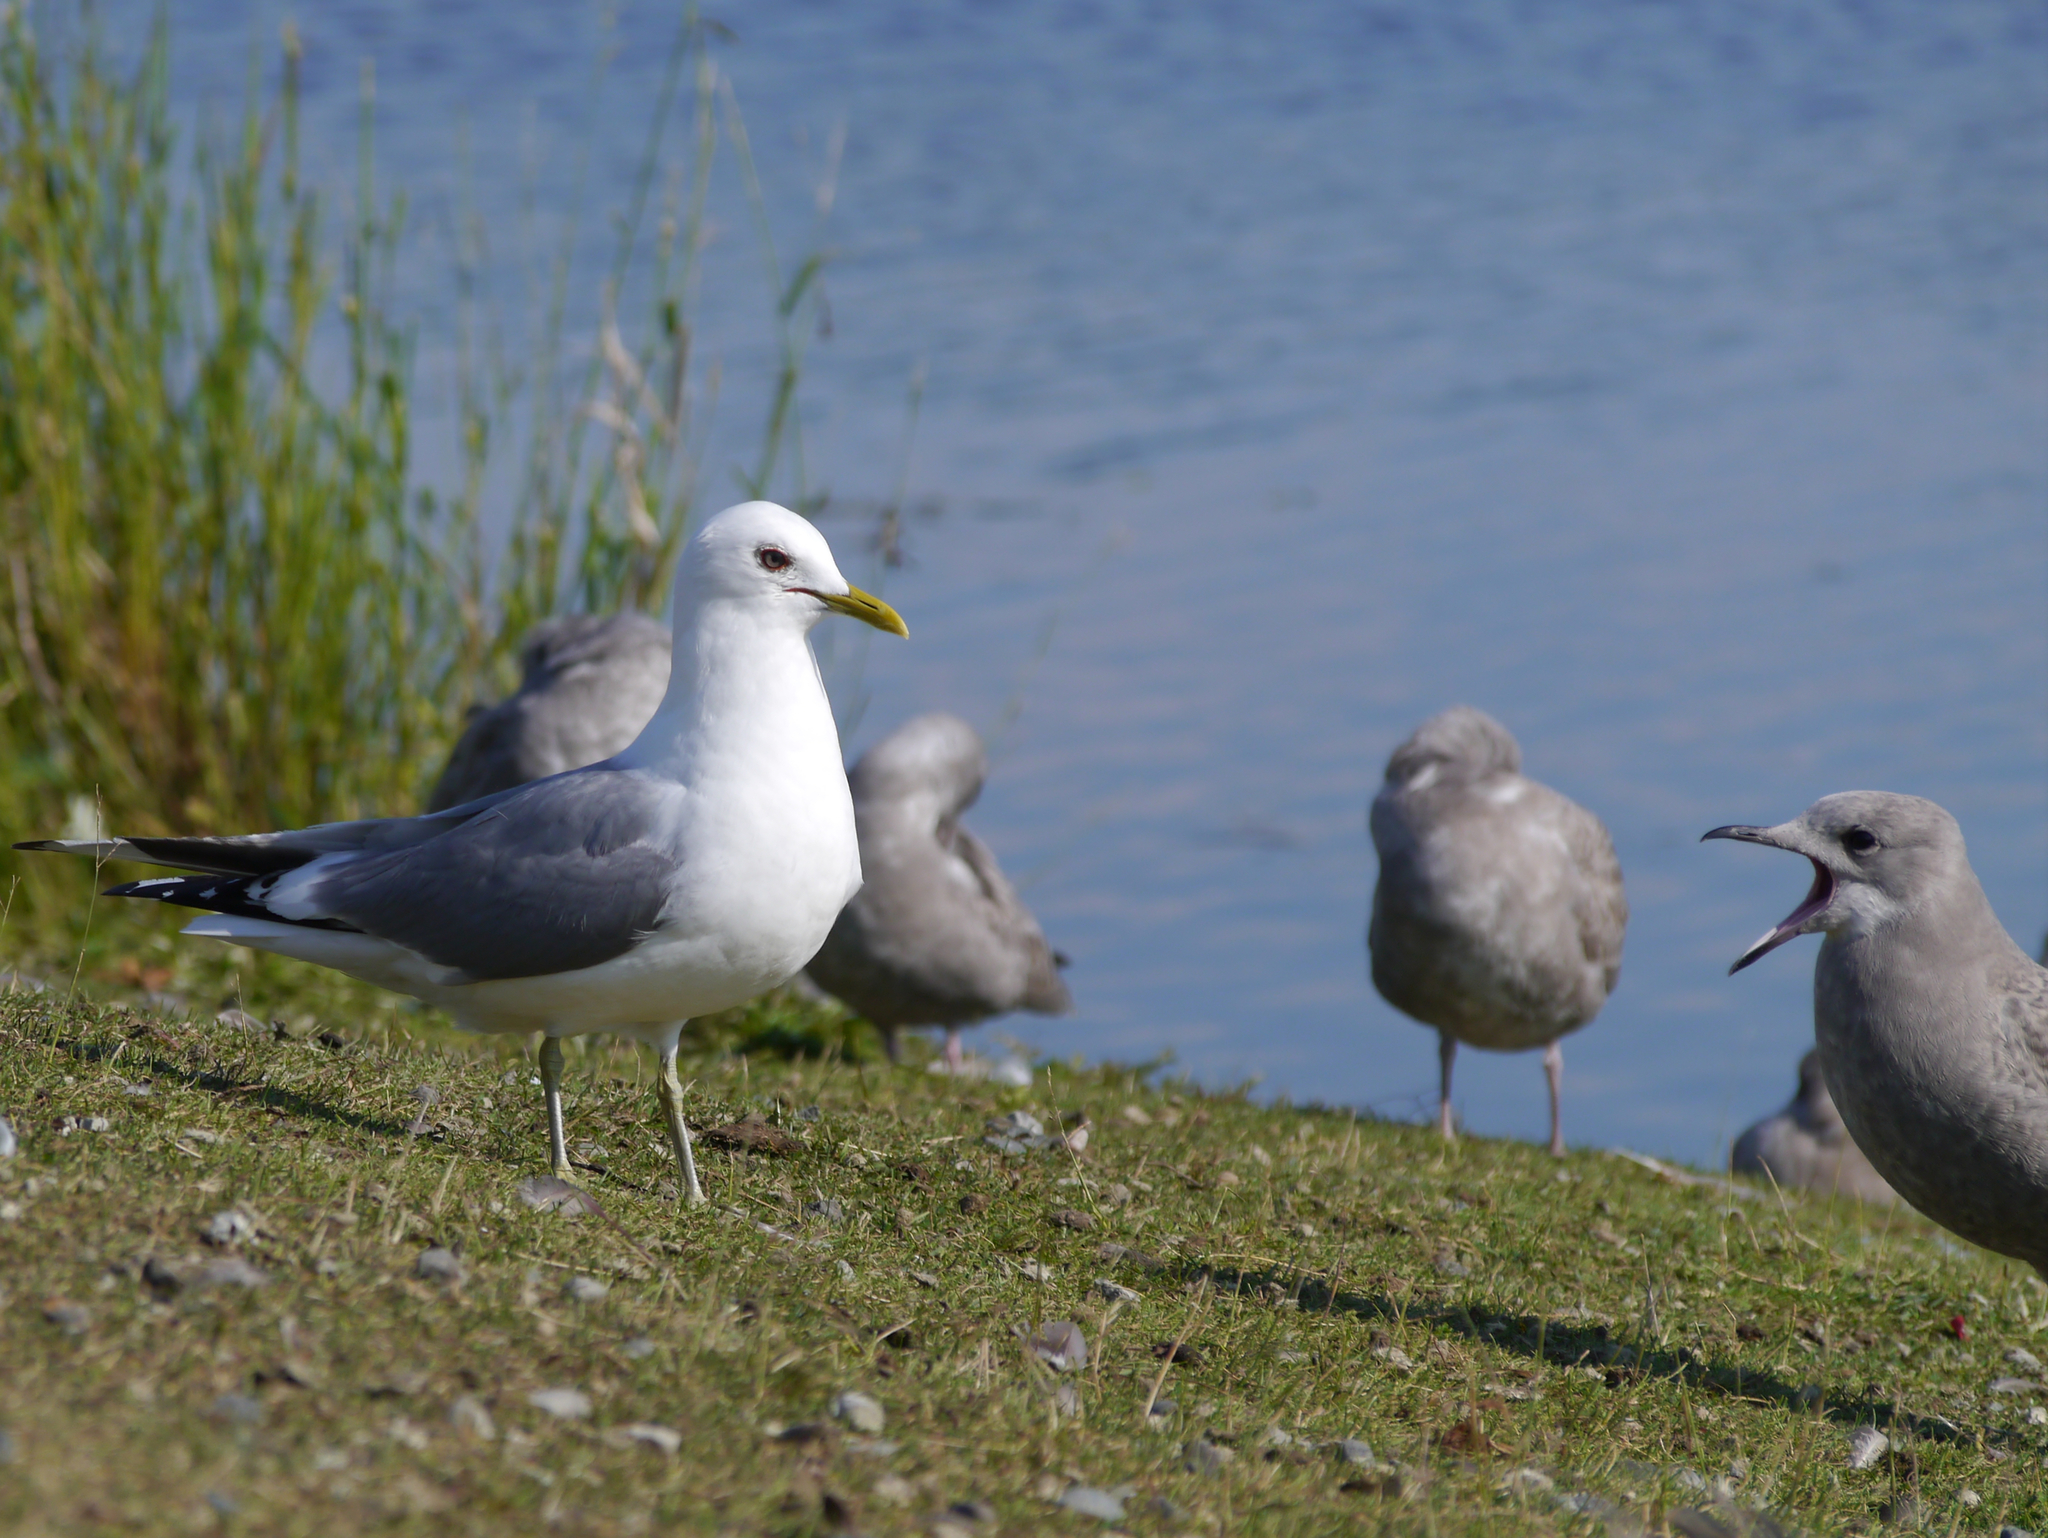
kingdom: Animalia
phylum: Chordata
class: Aves
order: Charadriiformes
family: Laridae
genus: Larus
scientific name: Larus brachyrhynchus
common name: Short-billed gull
